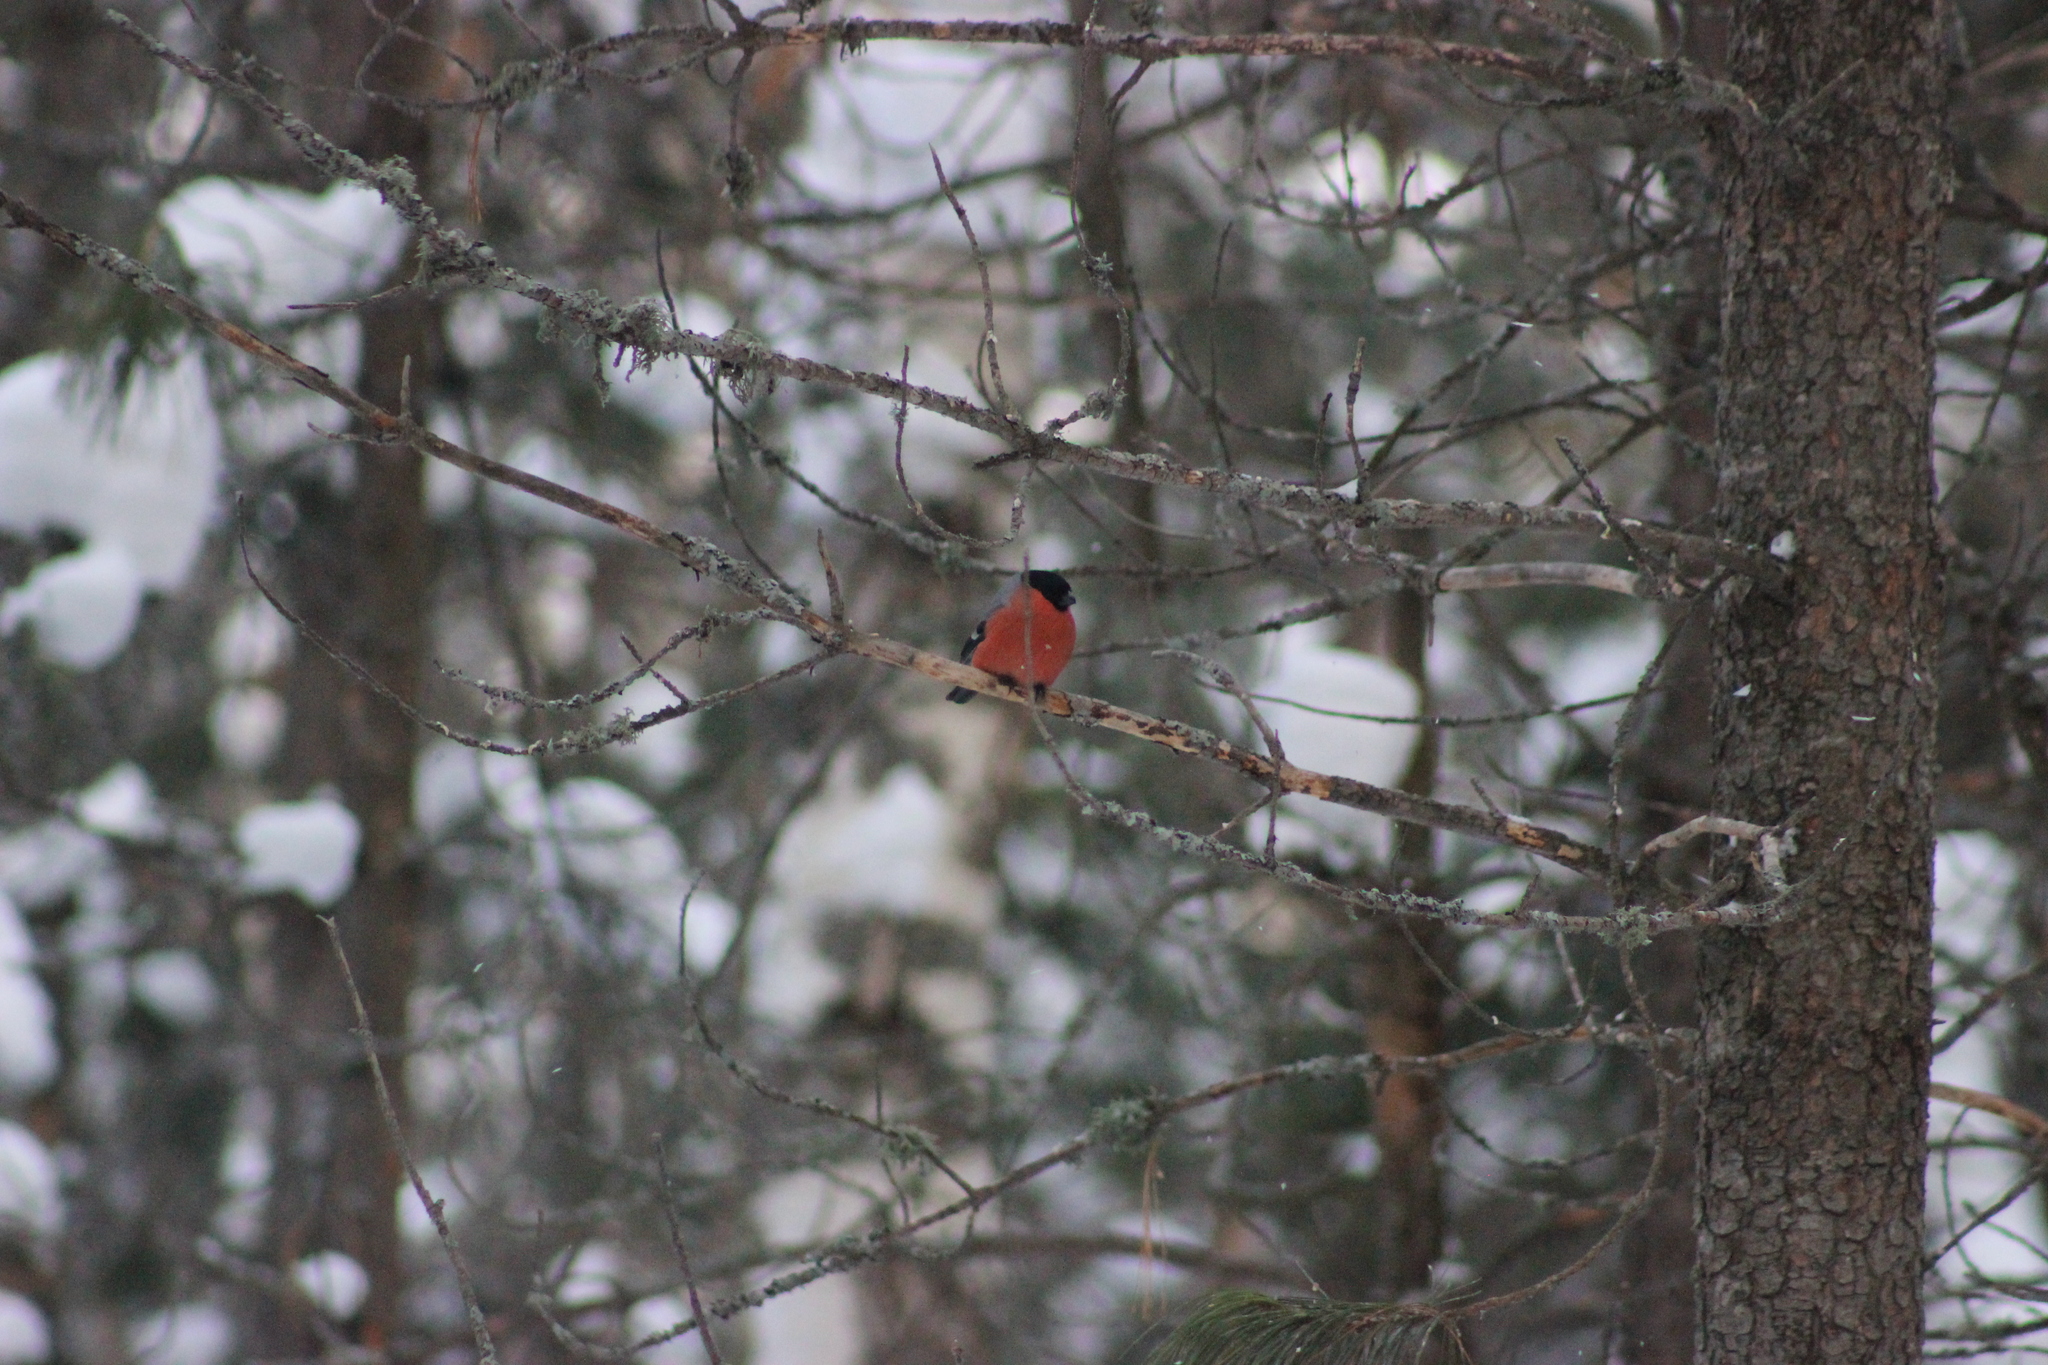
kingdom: Animalia
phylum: Chordata
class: Aves
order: Passeriformes
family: Fringillidae
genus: Pyrrhula
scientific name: Pyrrhula pyrrhula
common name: Eurasian bullfinch
